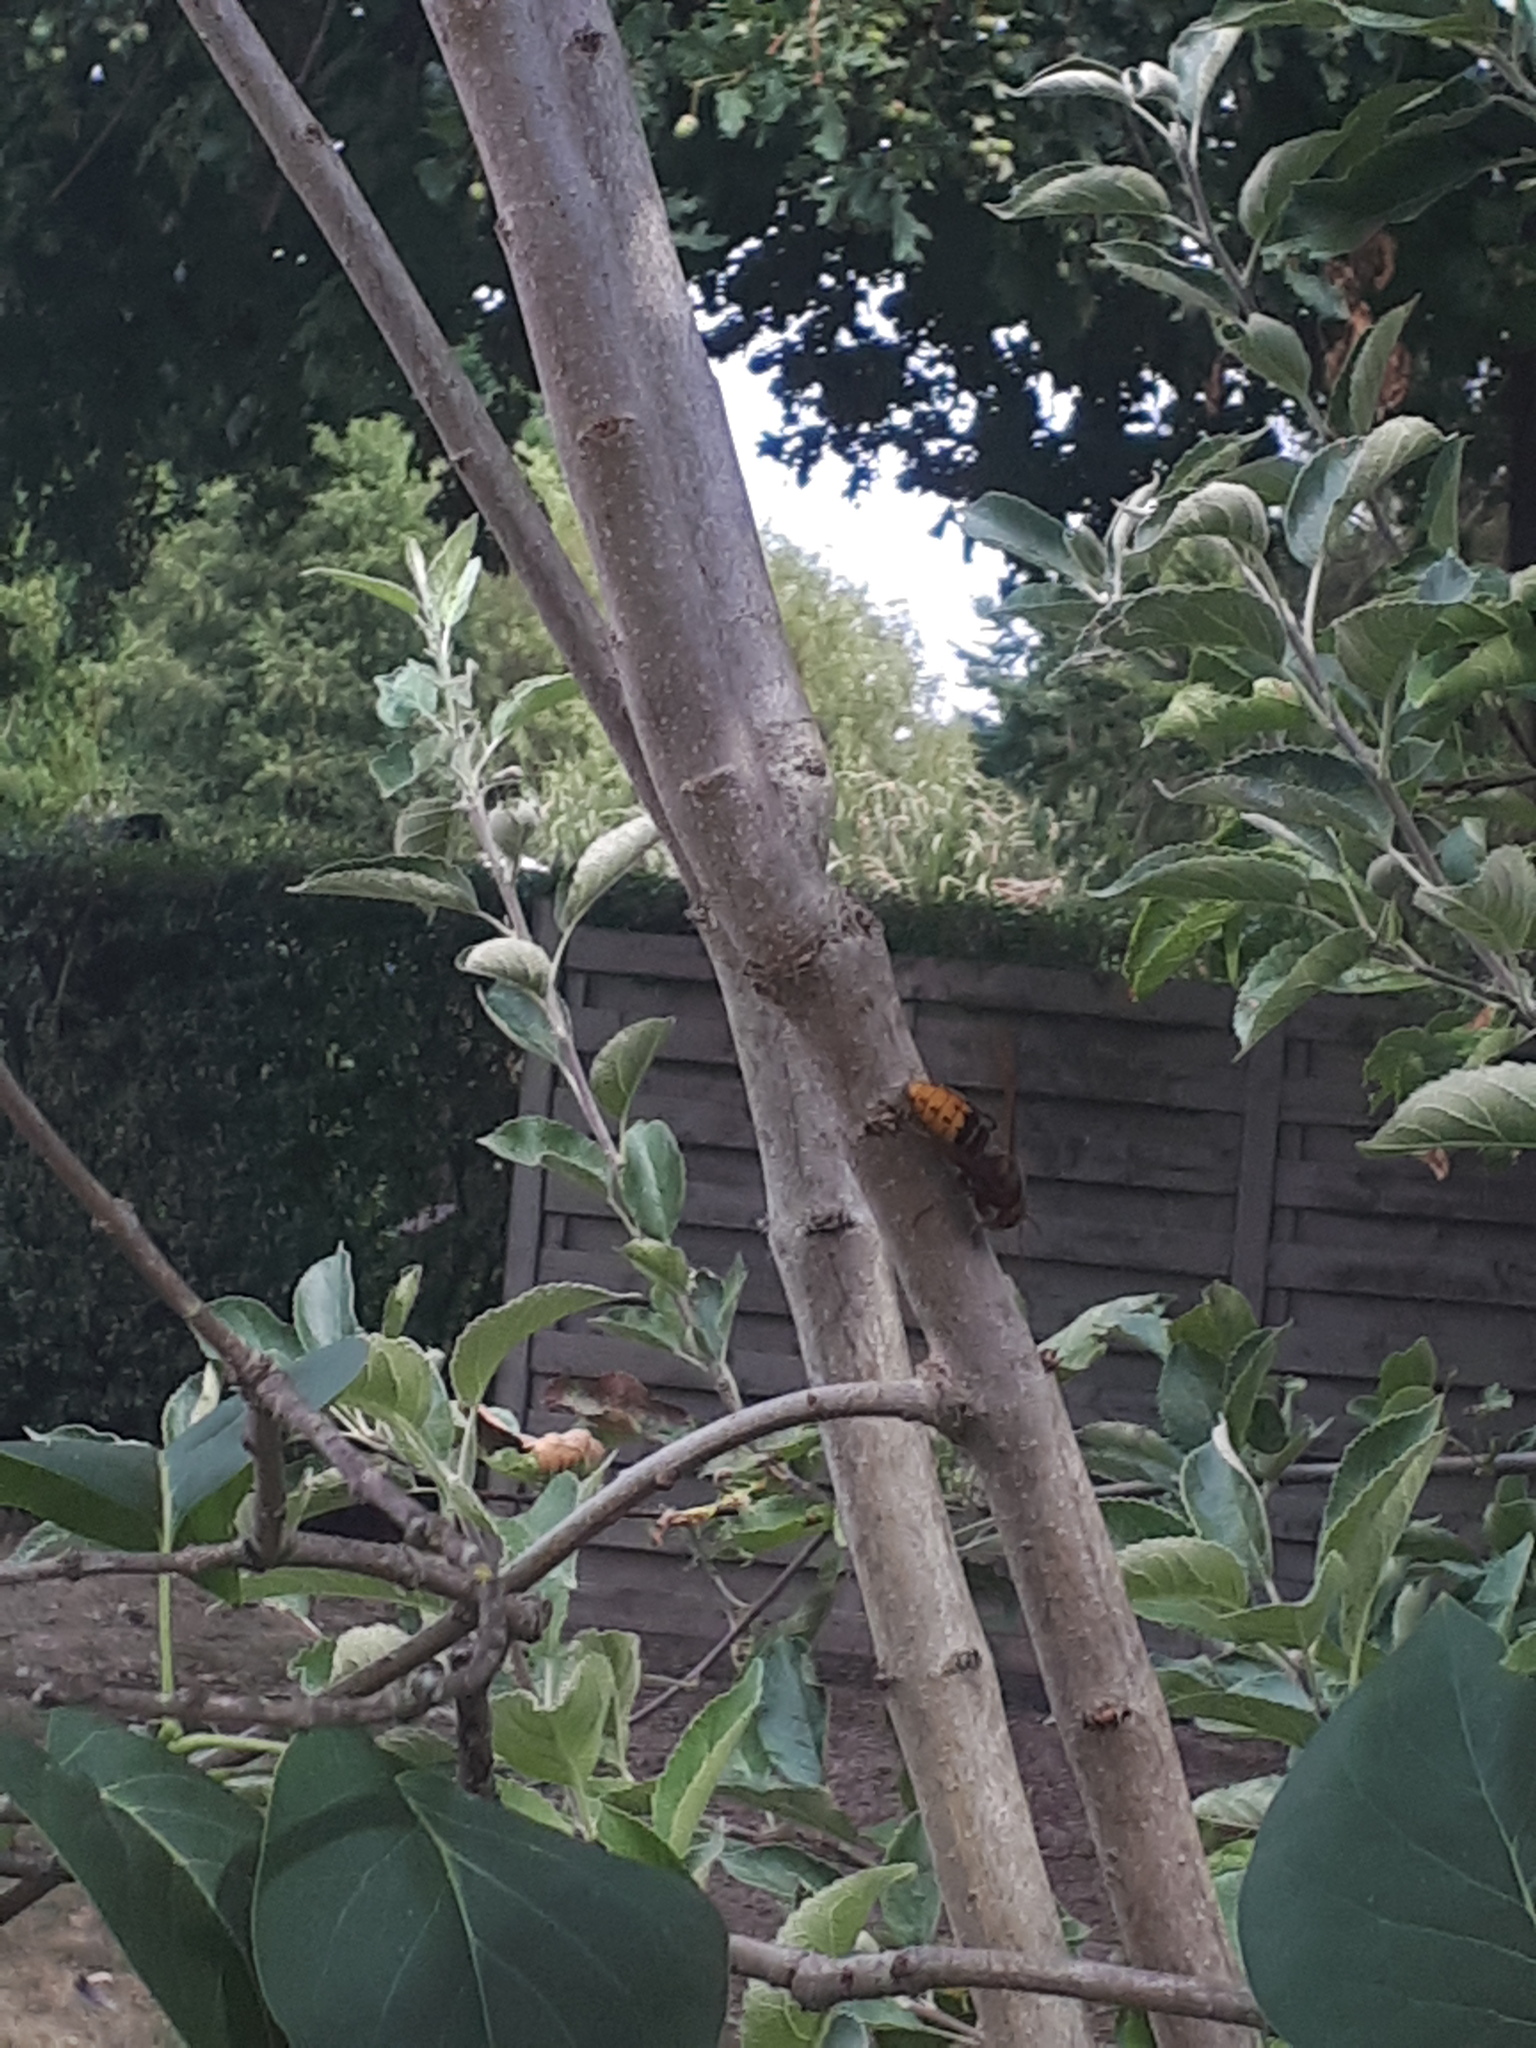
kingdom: Animalia
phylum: Arthropoda
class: Insecta
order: Hymenoptera
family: Vespidae
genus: Vespa
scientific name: Vespa crabro
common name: Hornet
